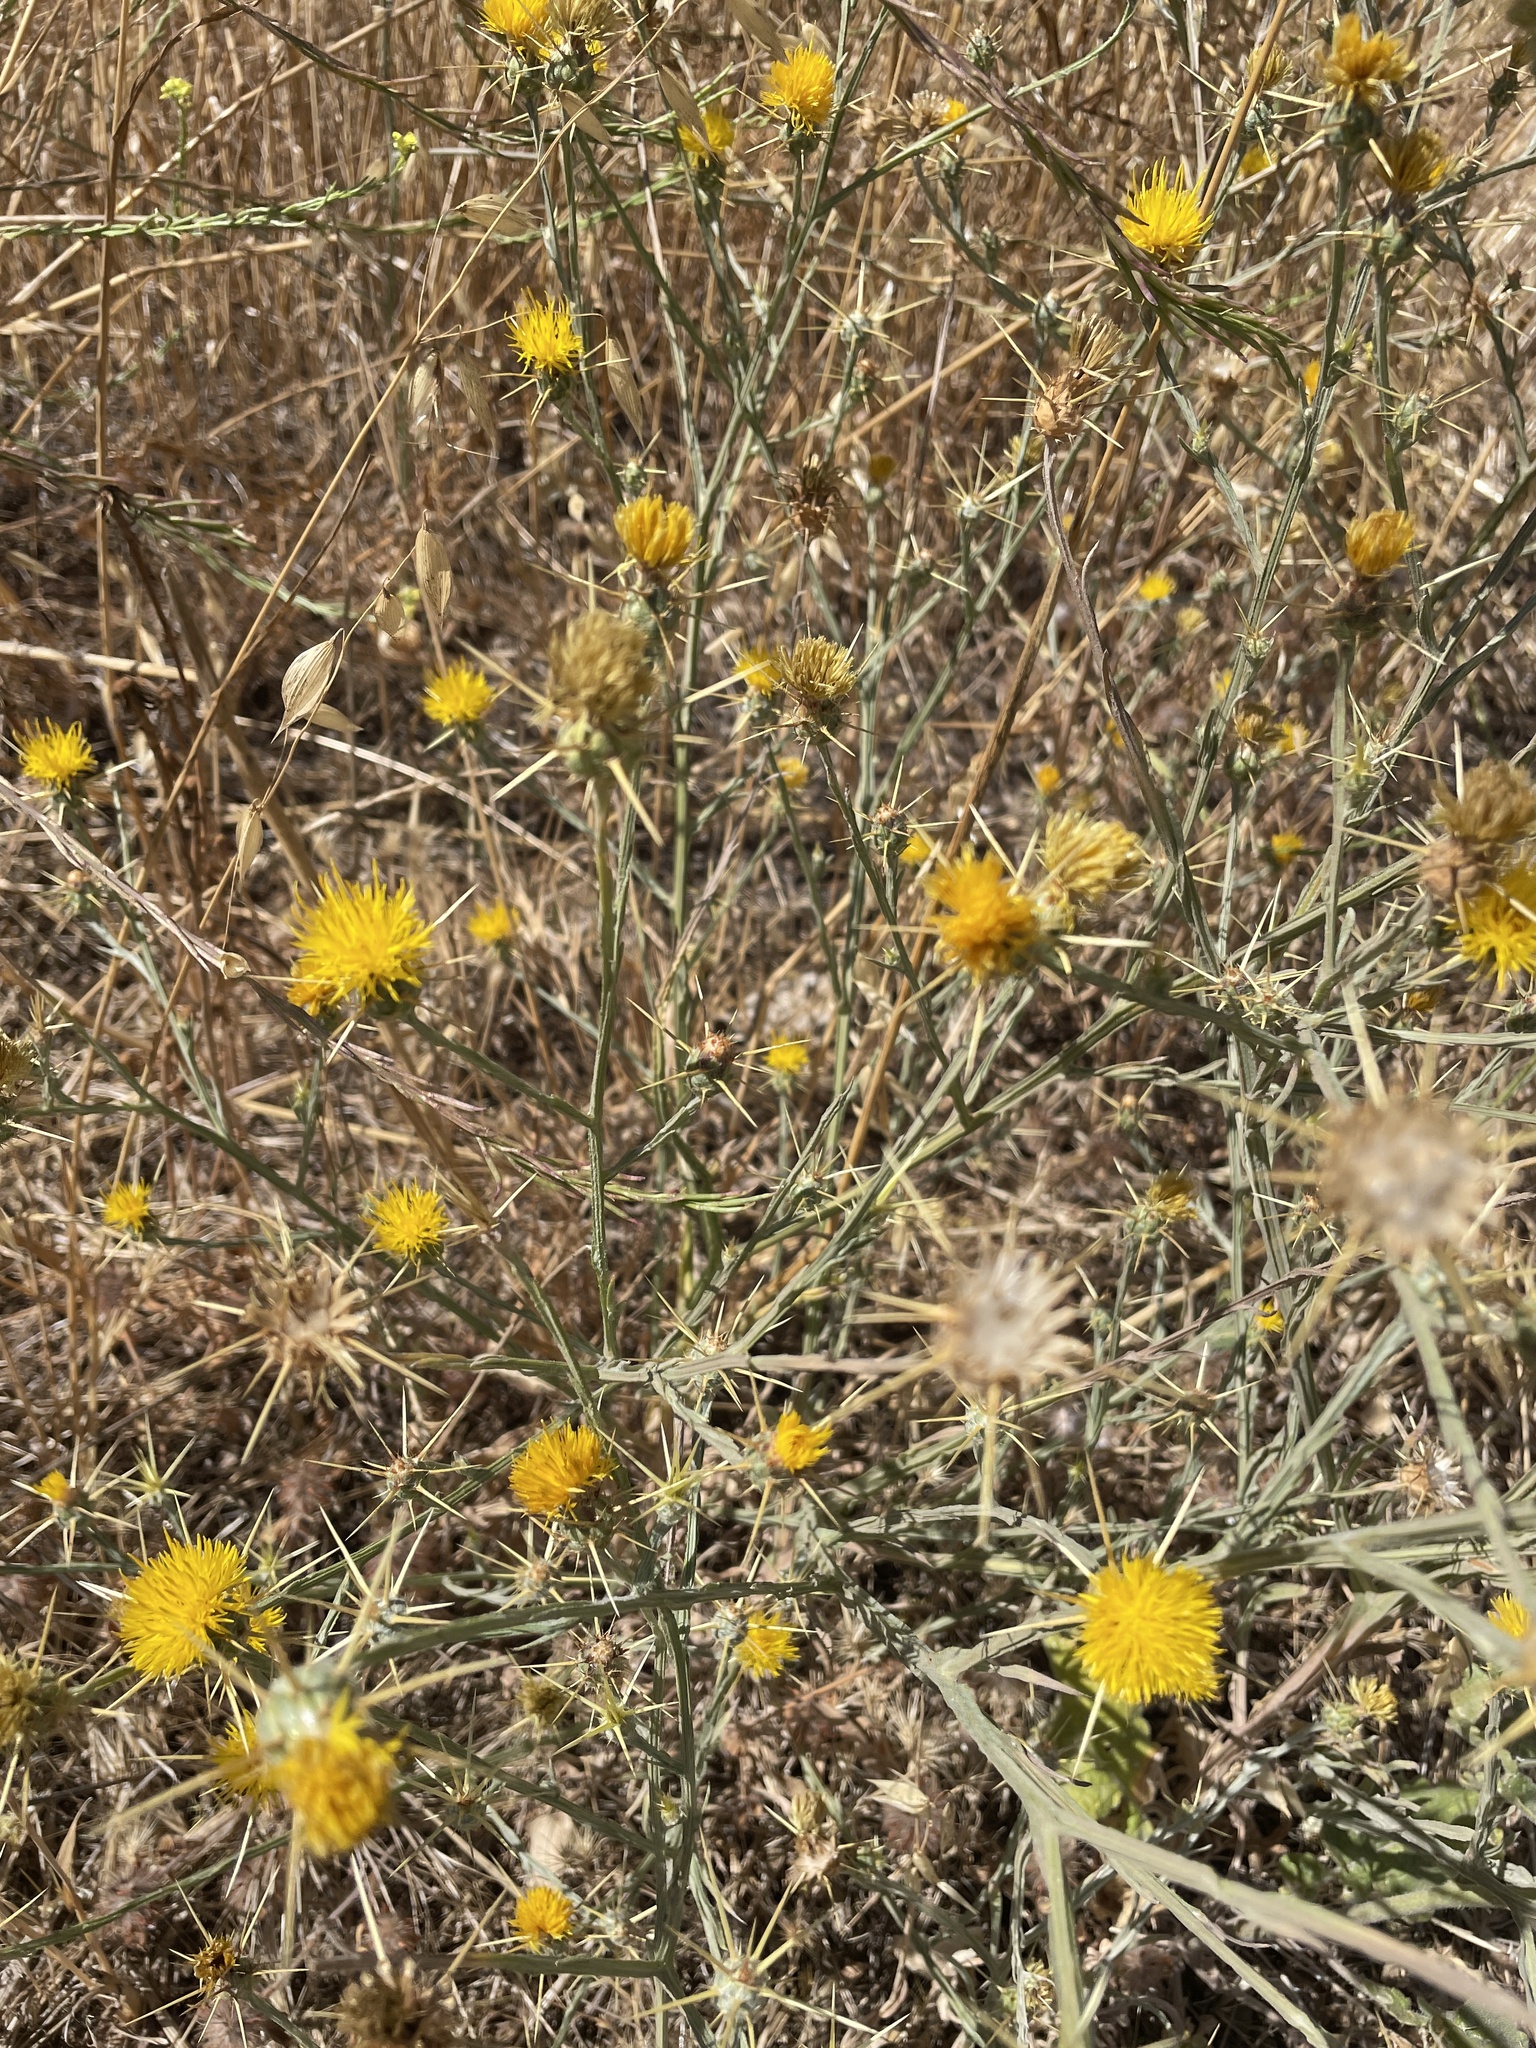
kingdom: Plantae
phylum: Tracheophyta
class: Magnoliopsida
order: Asterales
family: Asteraceae
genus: Centaurea
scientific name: Centaurea solstitialis
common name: Yellow star-thistle
